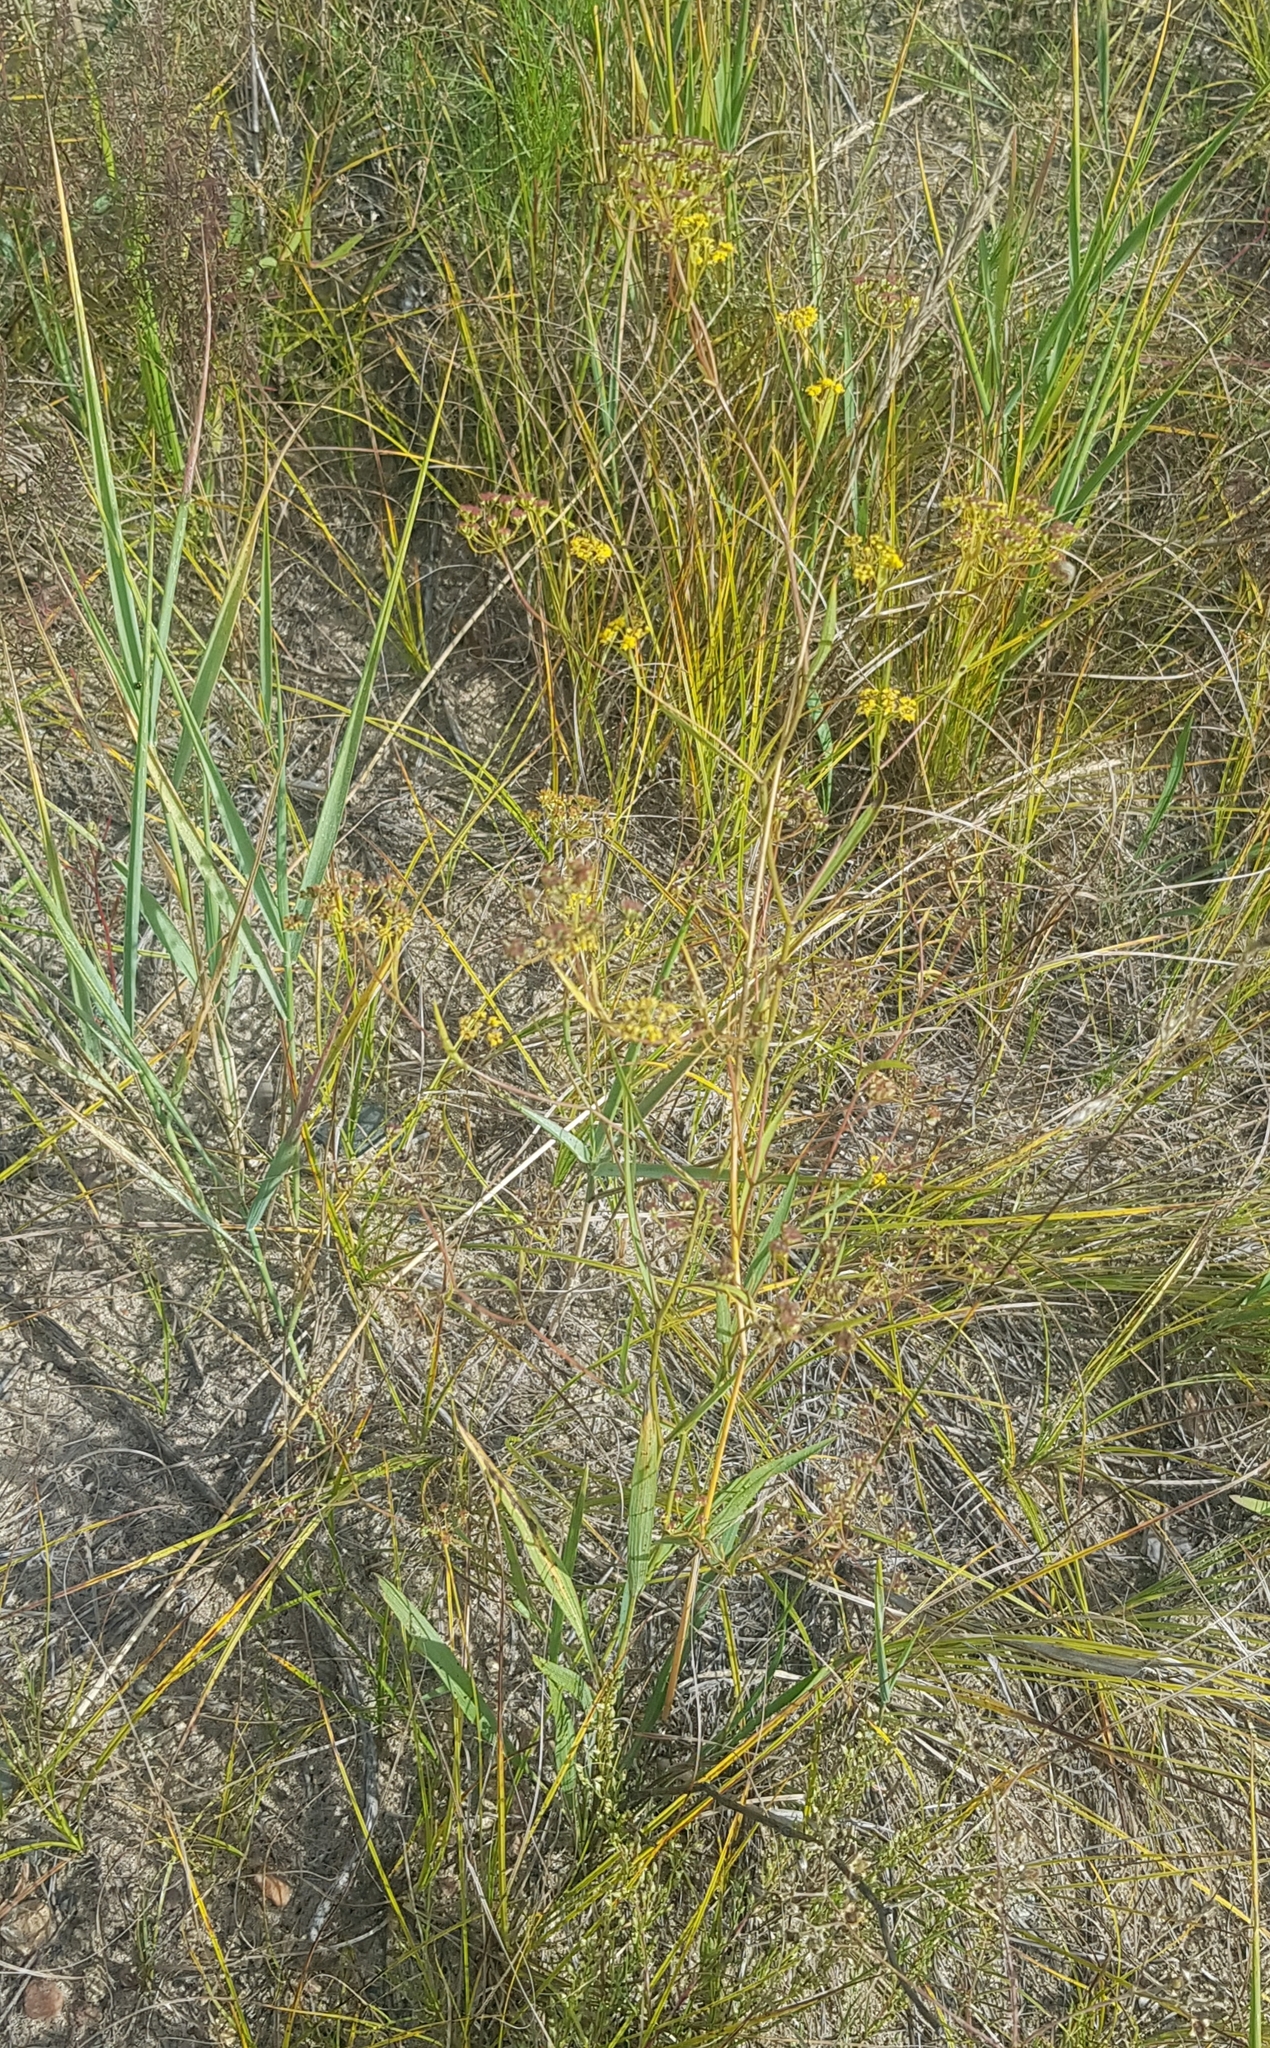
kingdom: Plantae
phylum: Tracheophyta
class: Magnoliopsida
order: Apiales
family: Apiaceae
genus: Bupleurum
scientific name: Bupleurum sibiricum
